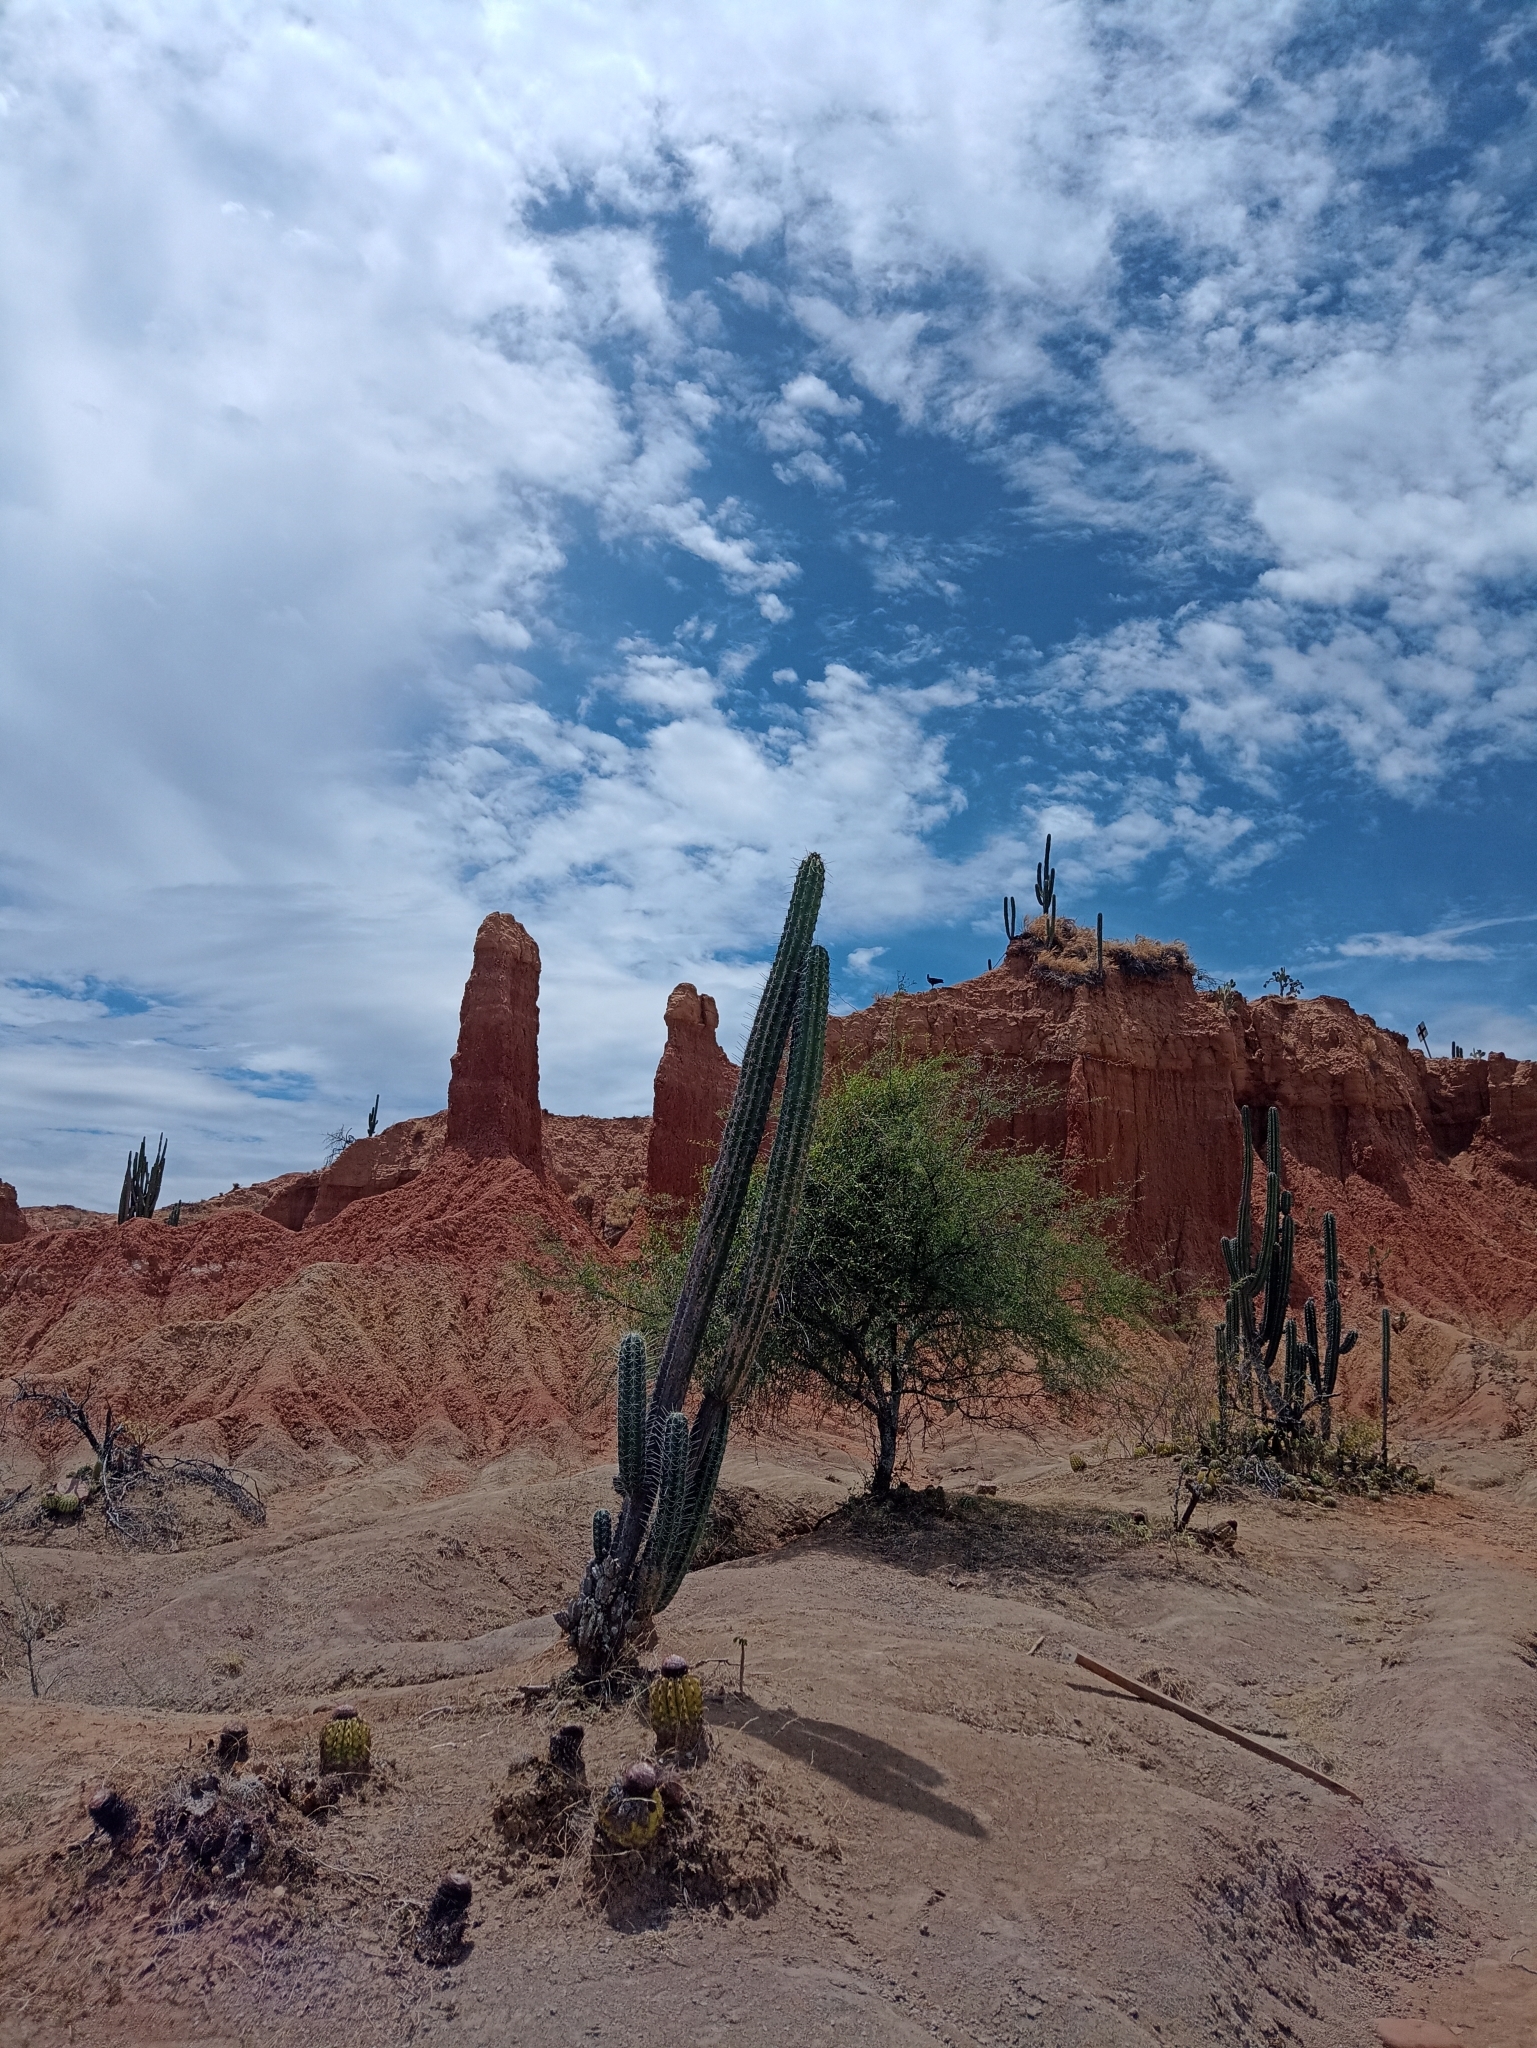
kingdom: Plantae
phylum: Tracheophyta
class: Magnoliopsida
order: Caryophyllales
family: Cactaceae
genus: Stenocereus
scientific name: Stenocereus griseus
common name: Tall candelabra cactus
